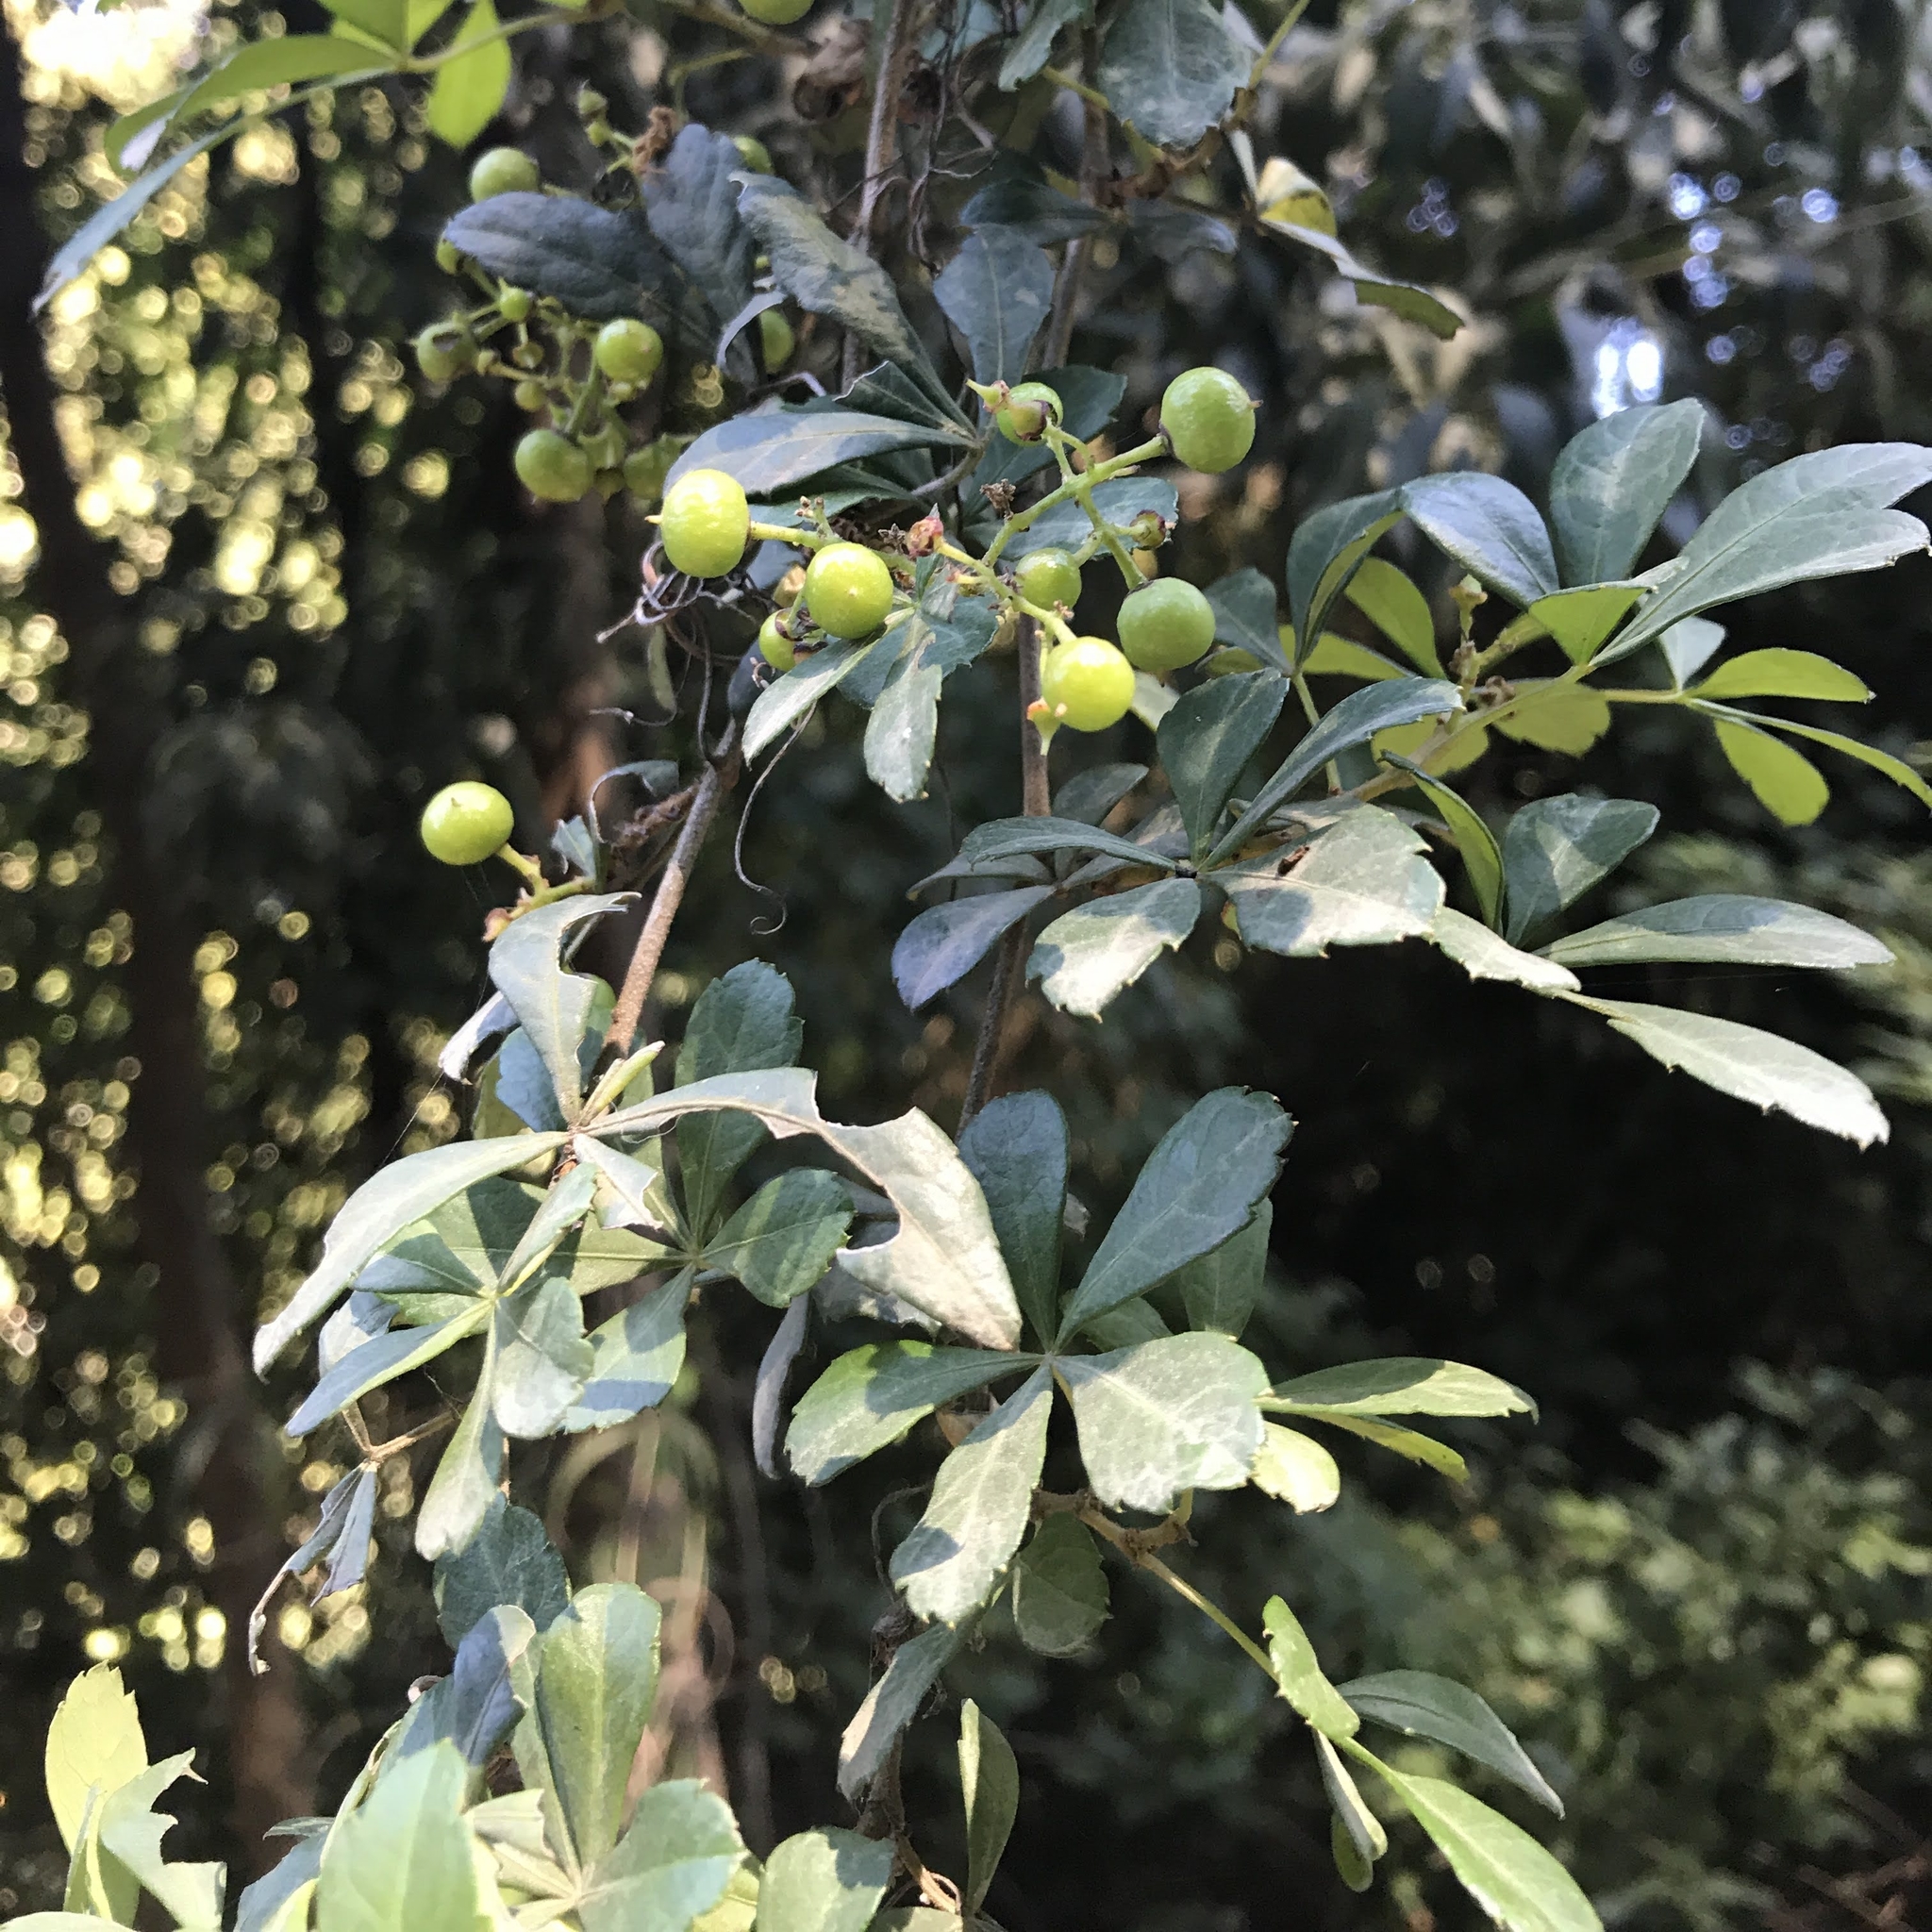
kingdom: Plantae
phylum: Tracheophyta
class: Magnoliopsida
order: Vitales
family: Vitaceae
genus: Clematicissus
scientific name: Clematicissus striata
